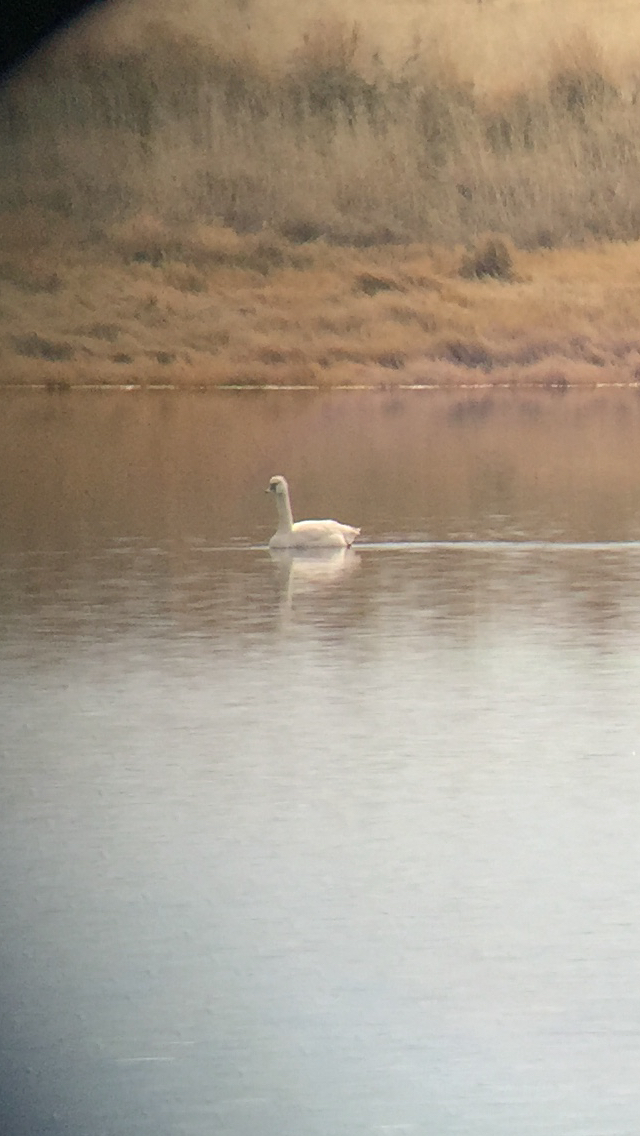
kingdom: Animalia
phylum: Chordata
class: Aves
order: Anseriformes
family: Anatidae
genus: Cygnus
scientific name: Cygnus columbianus
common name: Tundra swan
